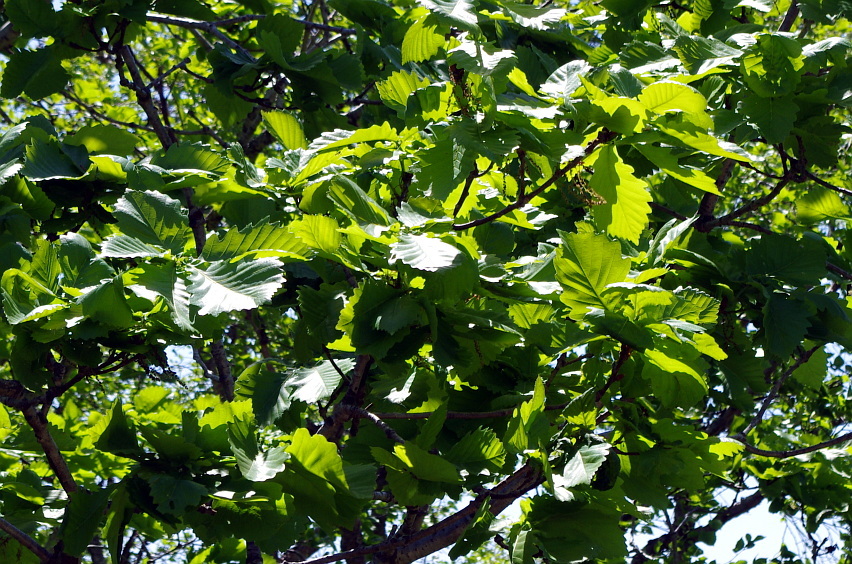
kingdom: Plantae
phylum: Tracheophyta
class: Magnoliopsida
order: Fagales
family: Fagaceae
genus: Quercus
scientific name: Quercus mongolica
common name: Mongolian oak
